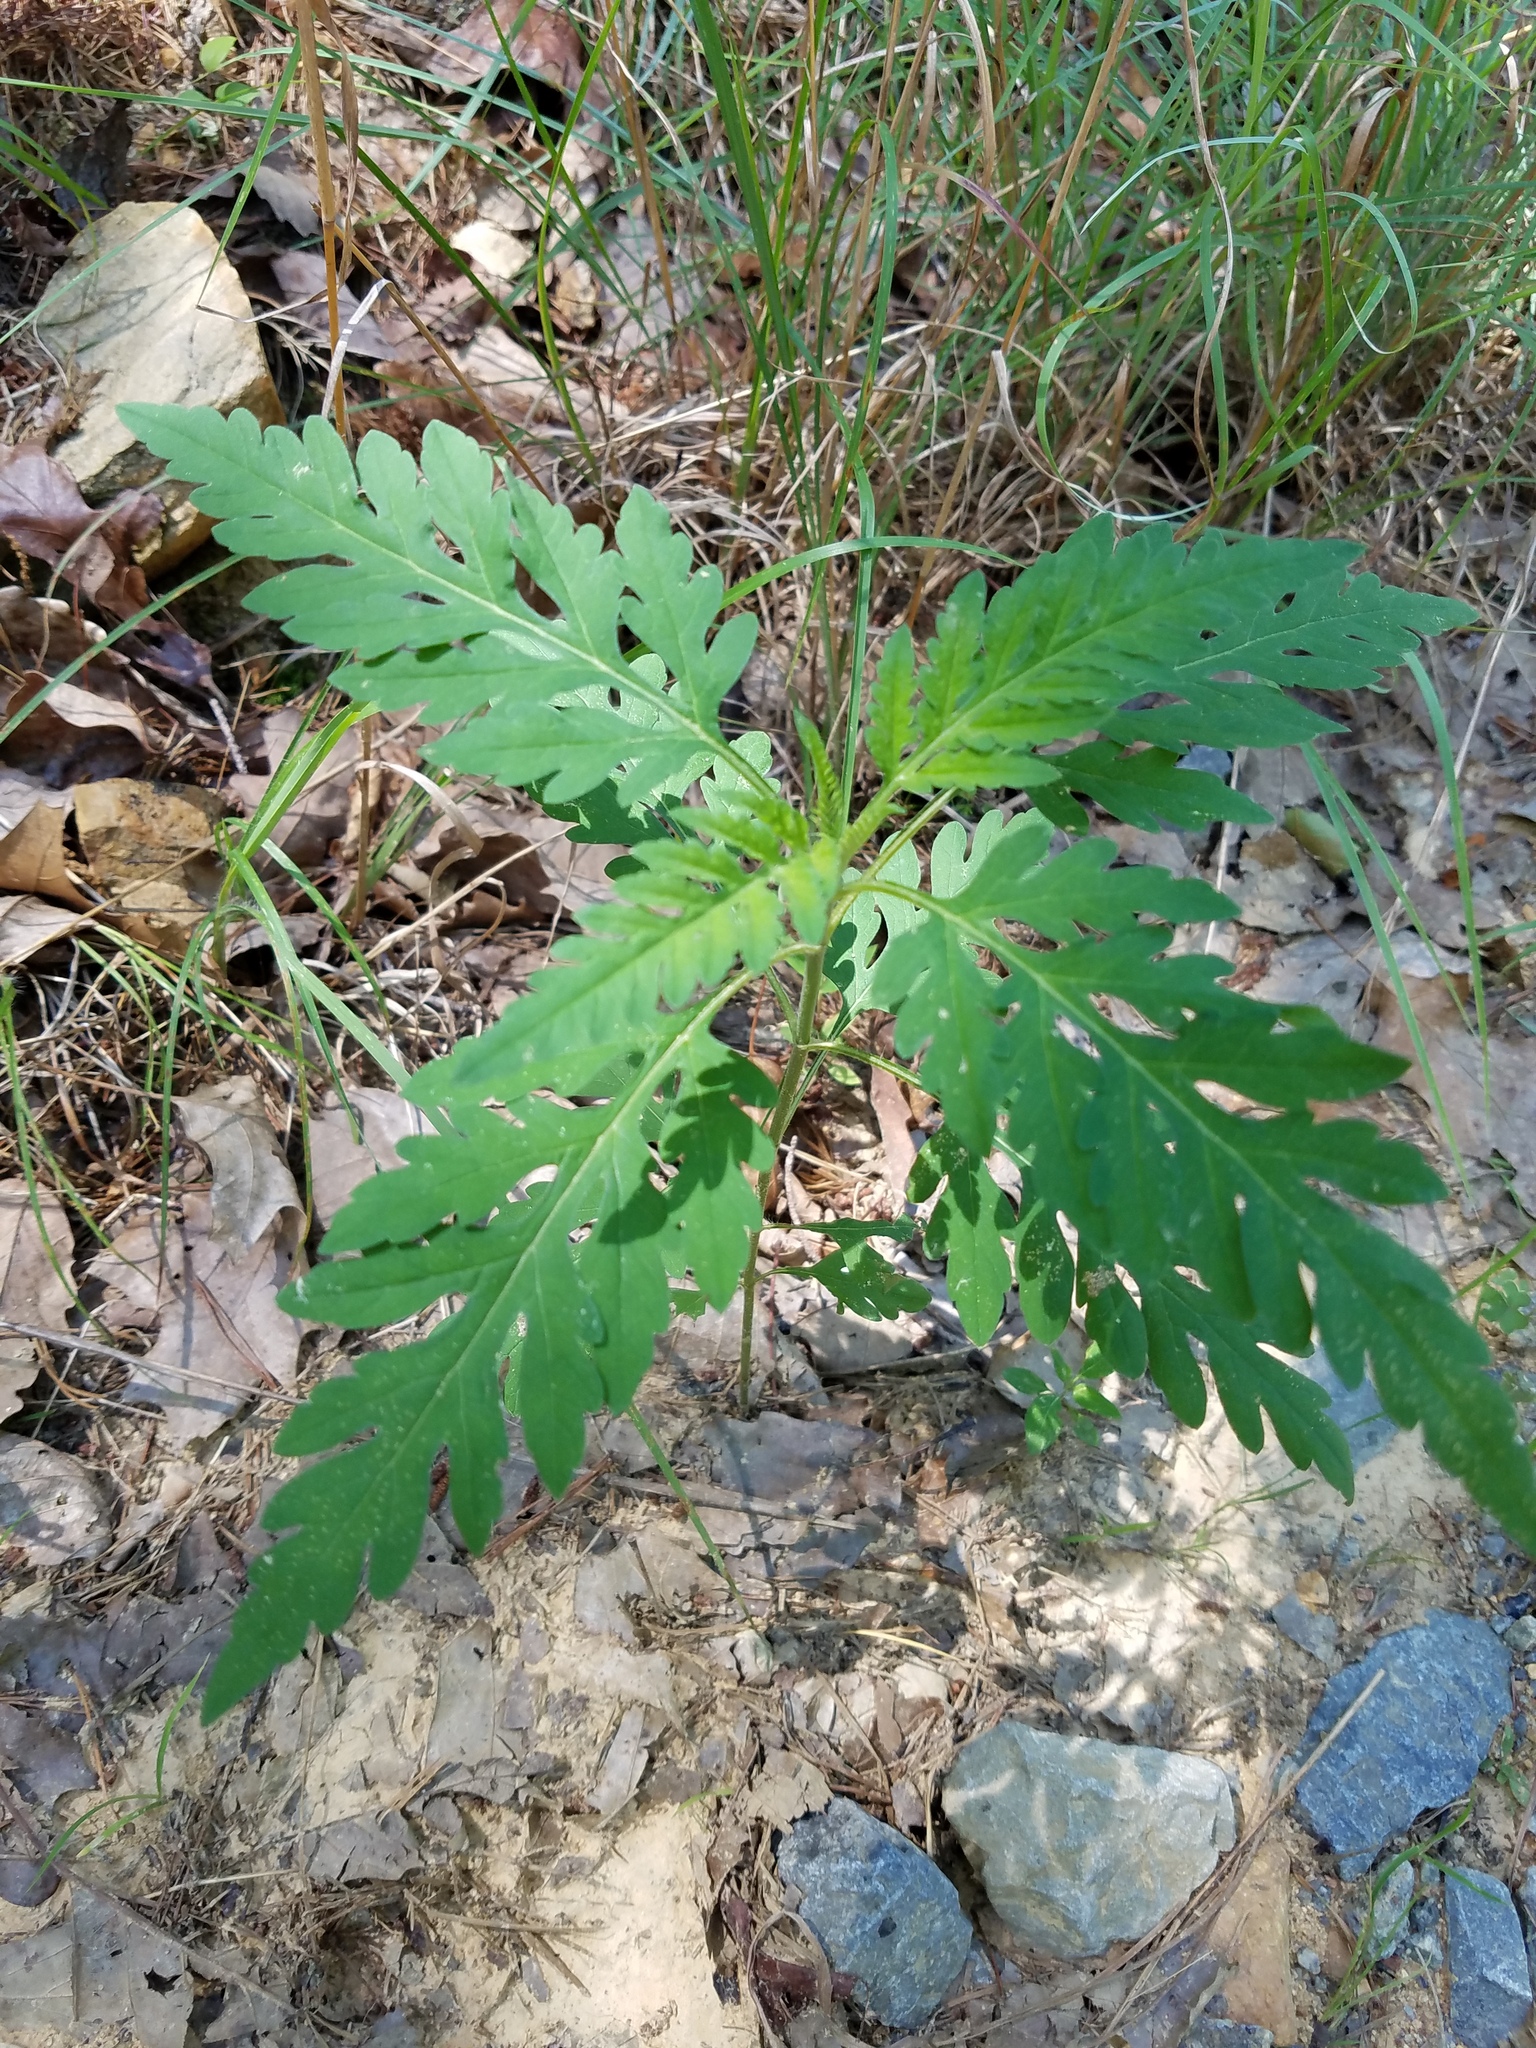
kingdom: Plantae
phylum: Tracheophyta
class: Magnoliopsida
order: Asterales
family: Asteraceae
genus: Ambrosia
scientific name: Ambrosia artemisiifolia
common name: Annual ragweed
